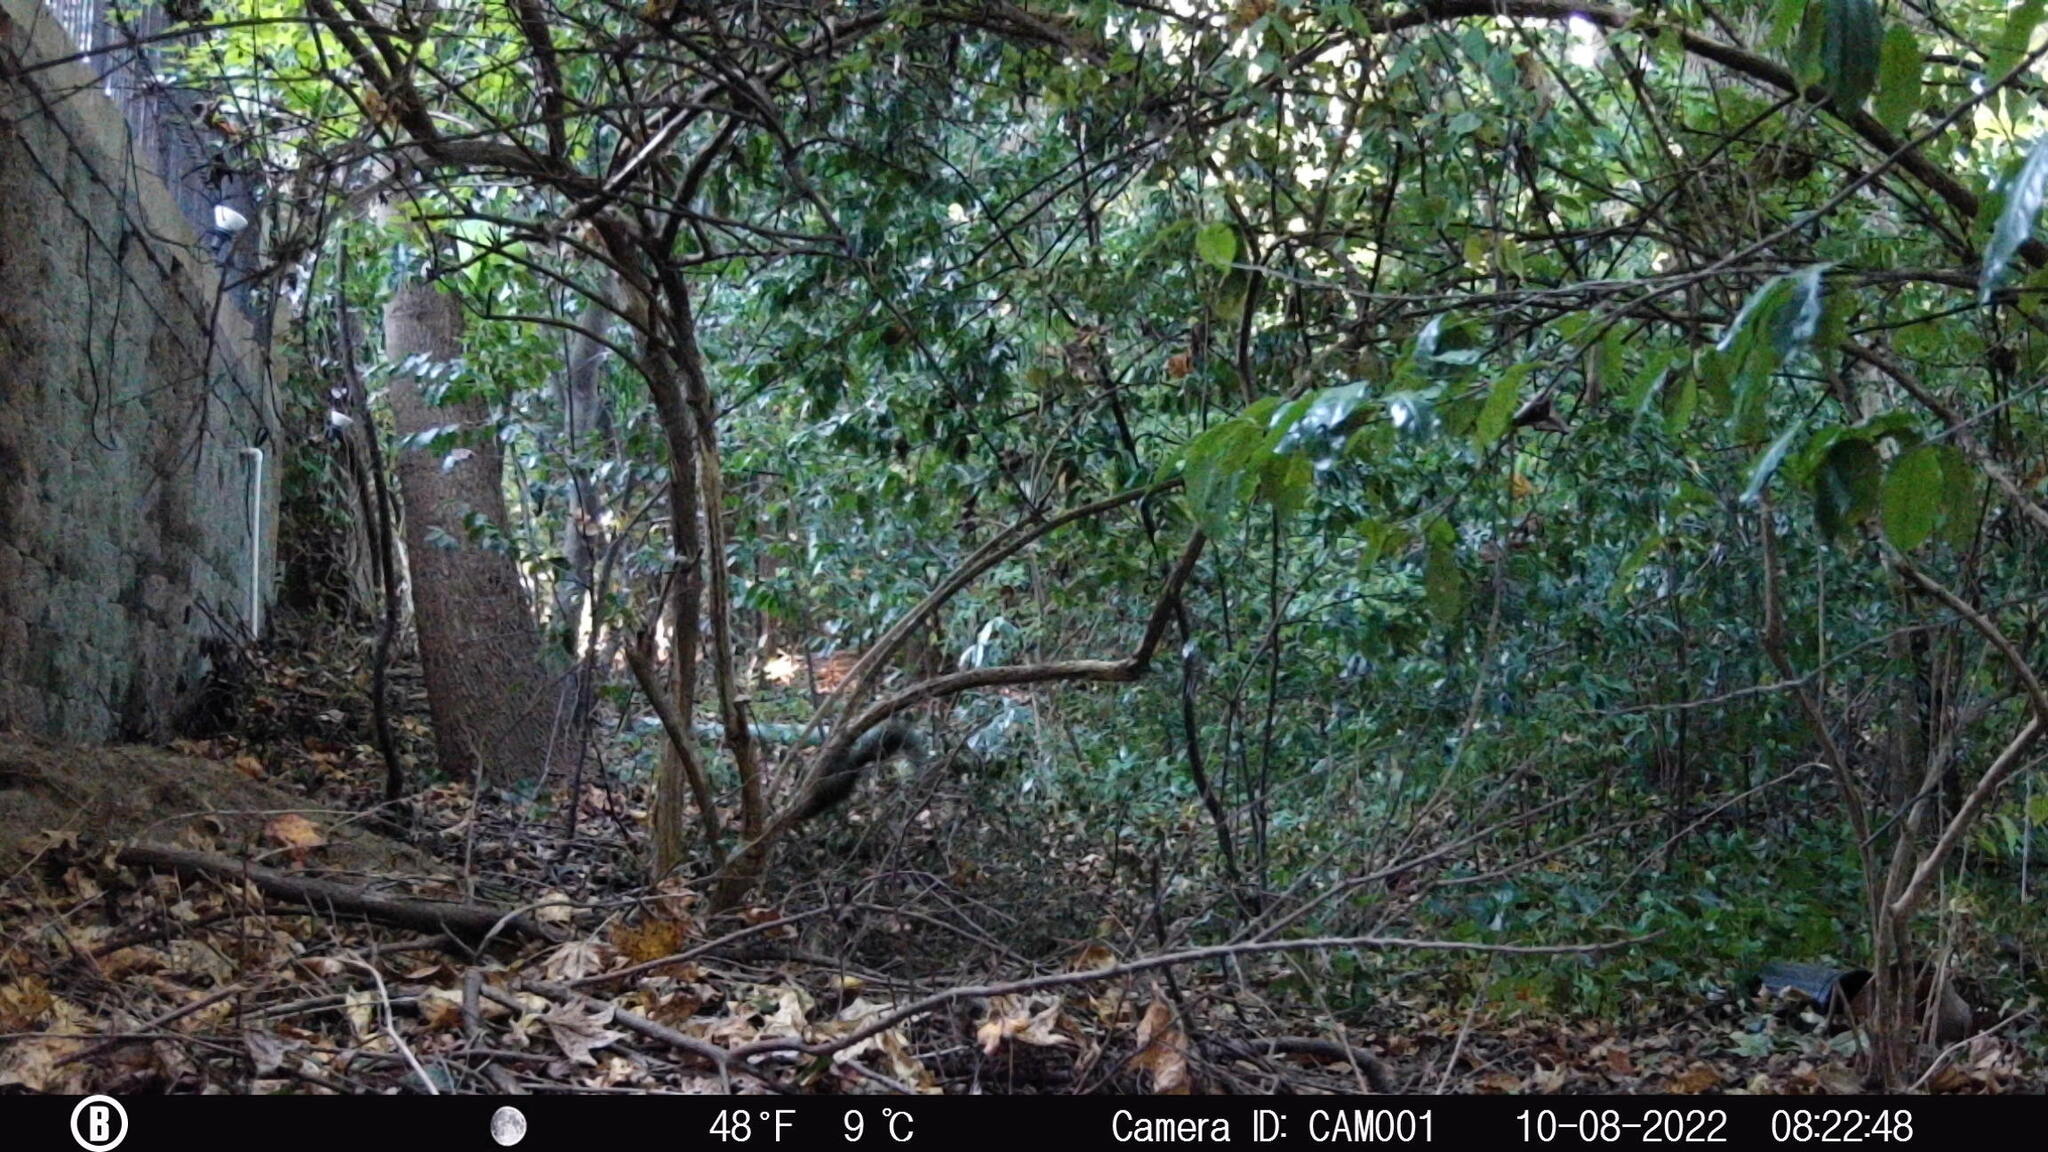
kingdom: Animalia
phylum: Chordata
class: Mammalia
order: Rodentia
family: Sciuridae
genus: Sciurus
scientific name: Sciurus carolinensis
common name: Eastern gray squirrel
